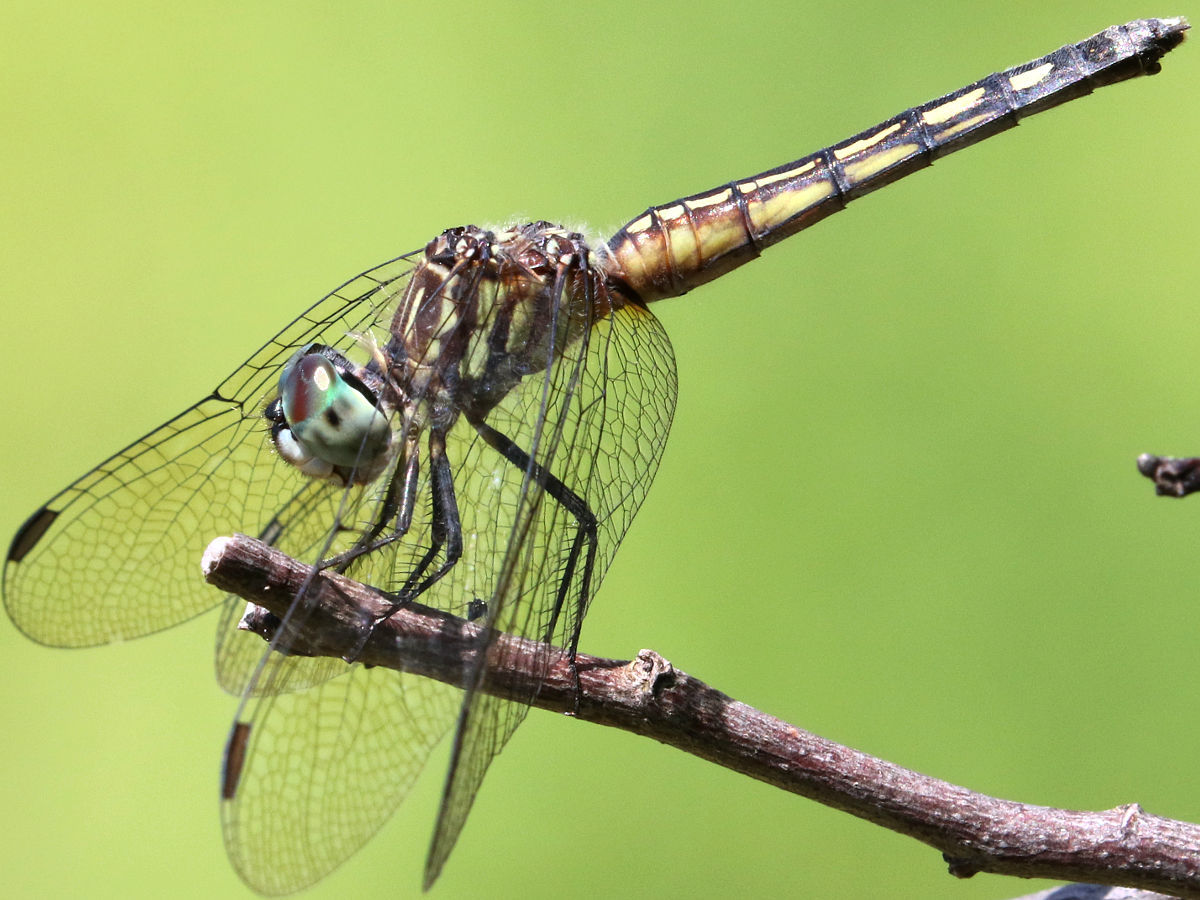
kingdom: Animalia
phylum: Arthropoda
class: Insecta
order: Odonata
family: Libellulidae
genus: Pachydiplax
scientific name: Pachydiplax longipennis
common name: Blue dasher
